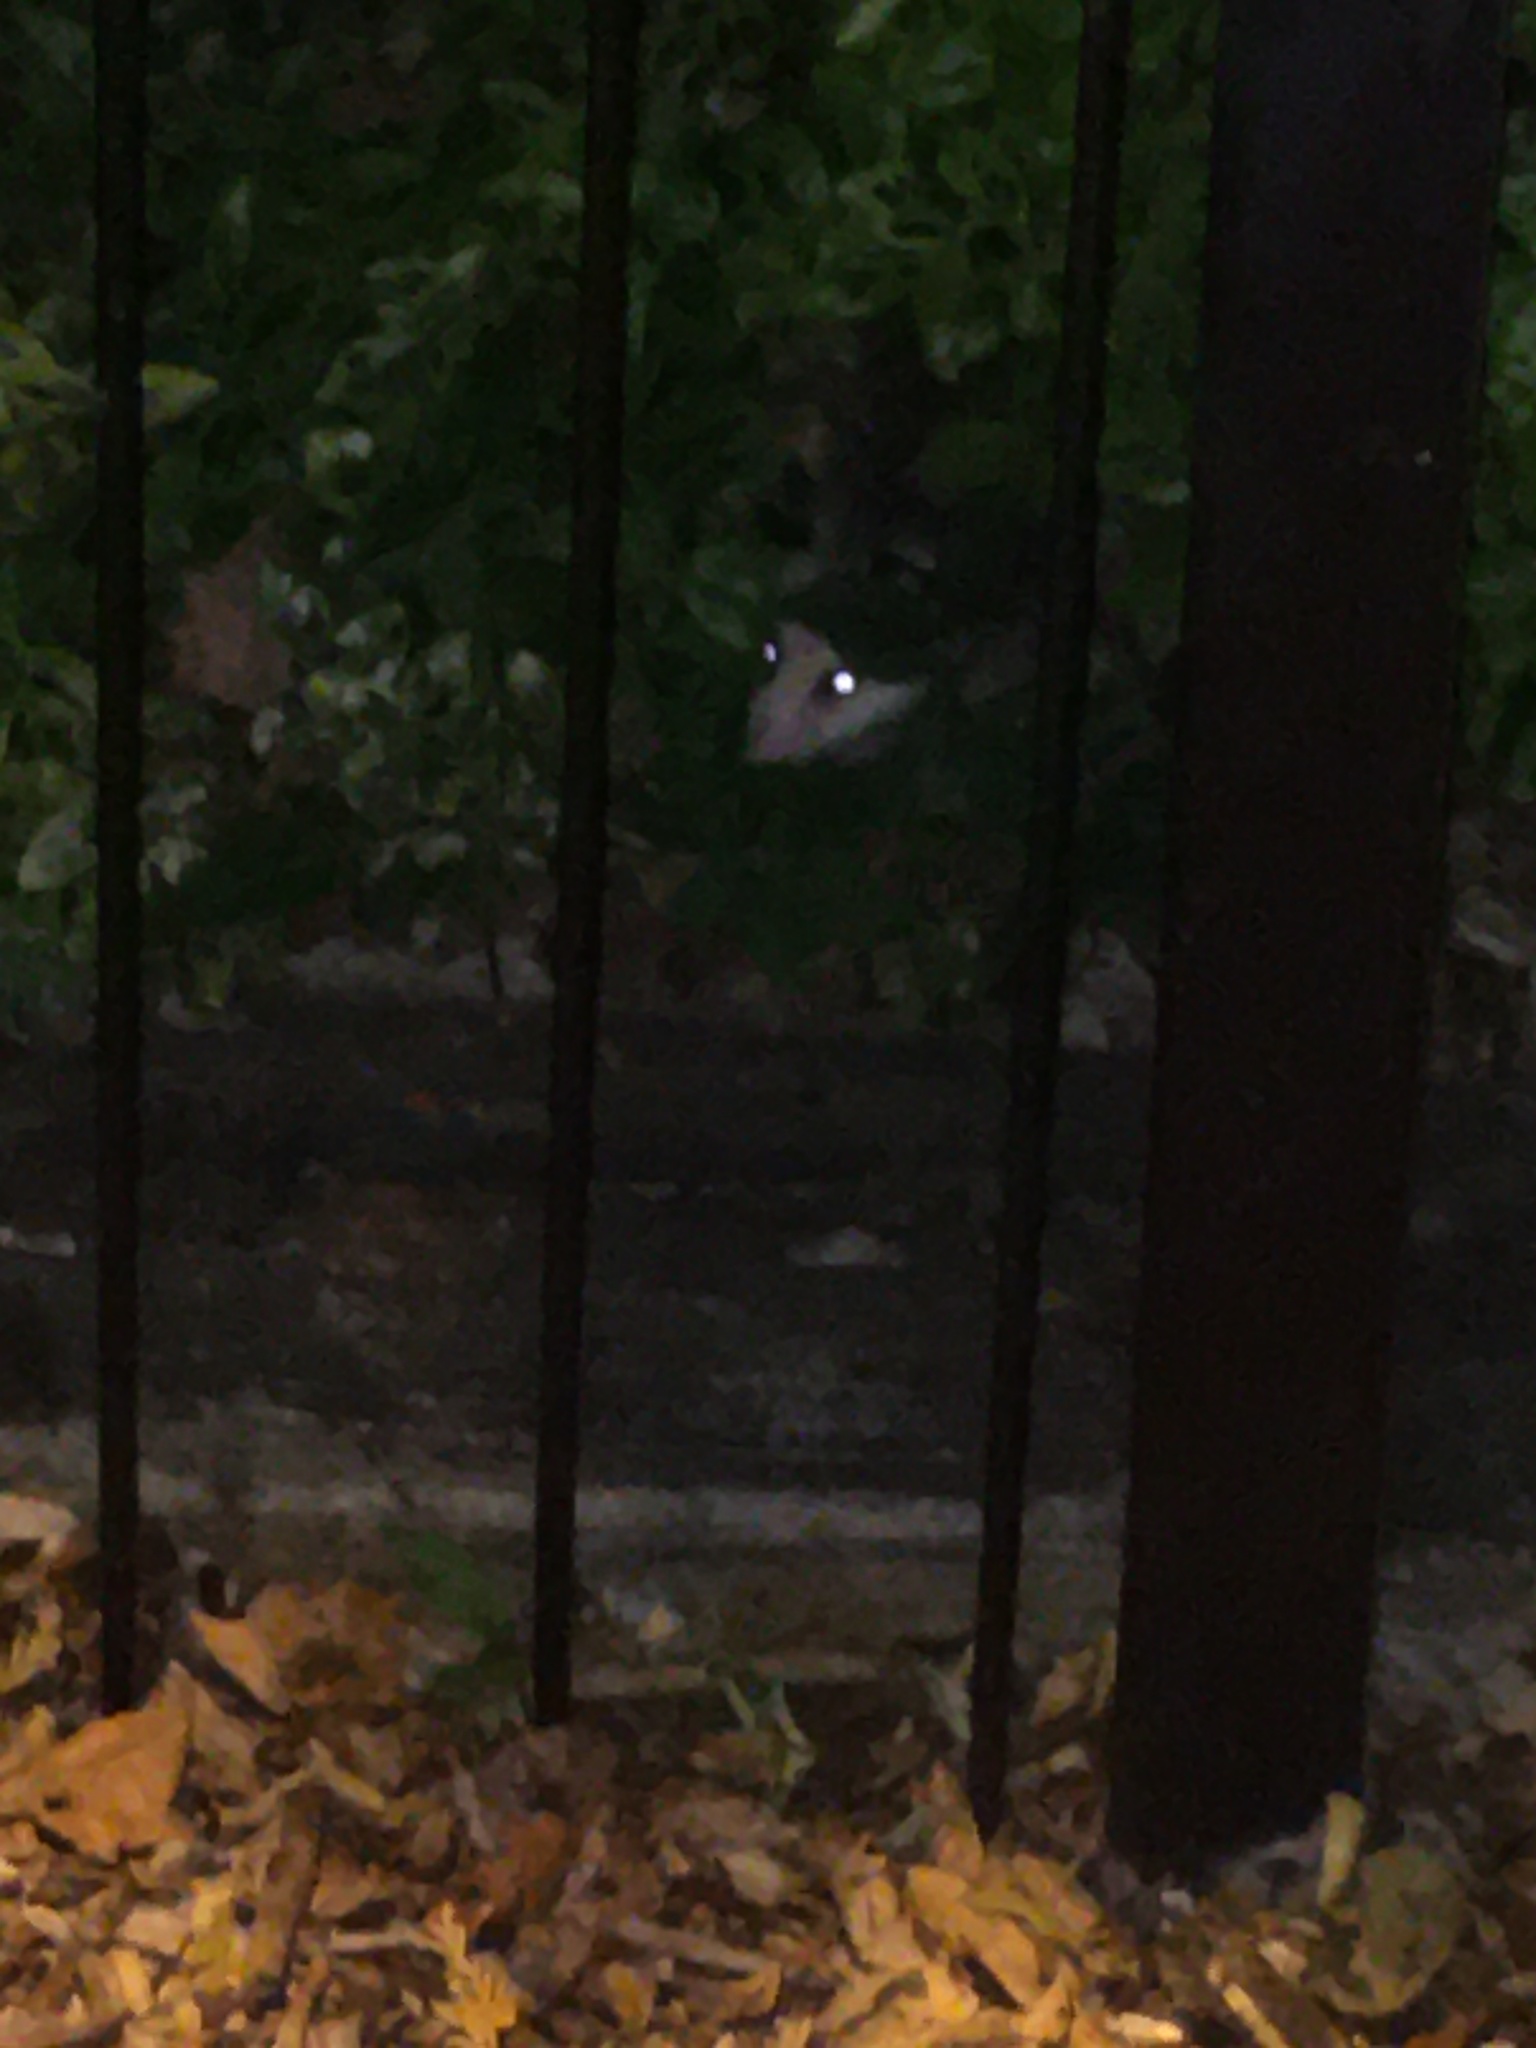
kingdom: Animalia
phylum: Chordata
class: Mammalia
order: Didelphimorphia
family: Didelphidae
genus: Didelphis
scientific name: Didelphis virginiana
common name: Virginia opossum
